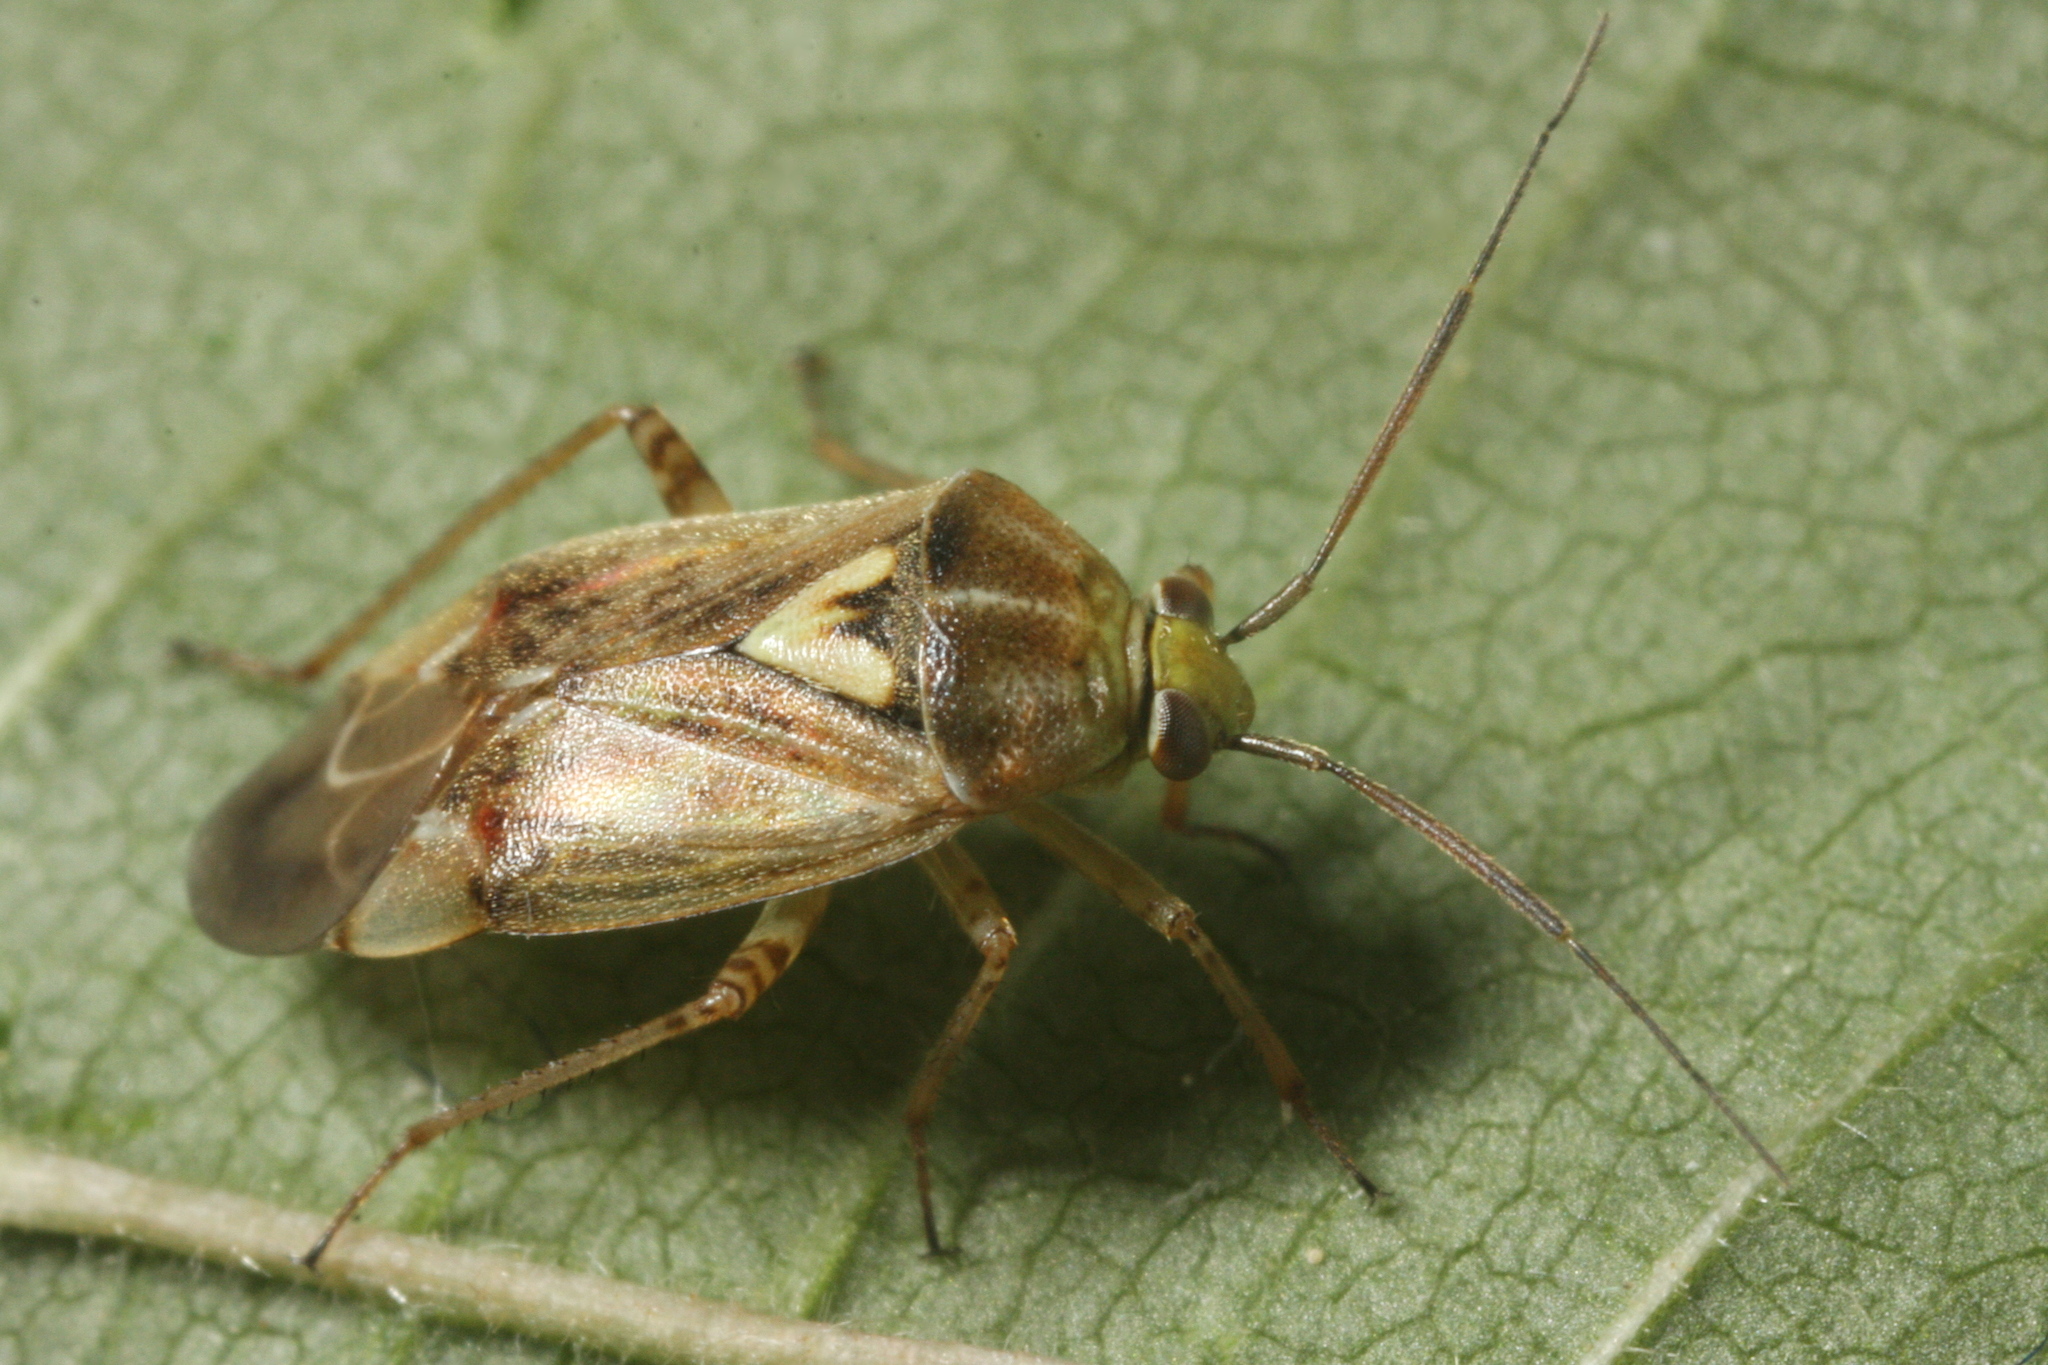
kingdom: Animalia
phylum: Arthropoda
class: Insecta
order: Hemiptera
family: Miridae
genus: Lygus
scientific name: Lygus rugulipennis
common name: European tarnished plant bug
